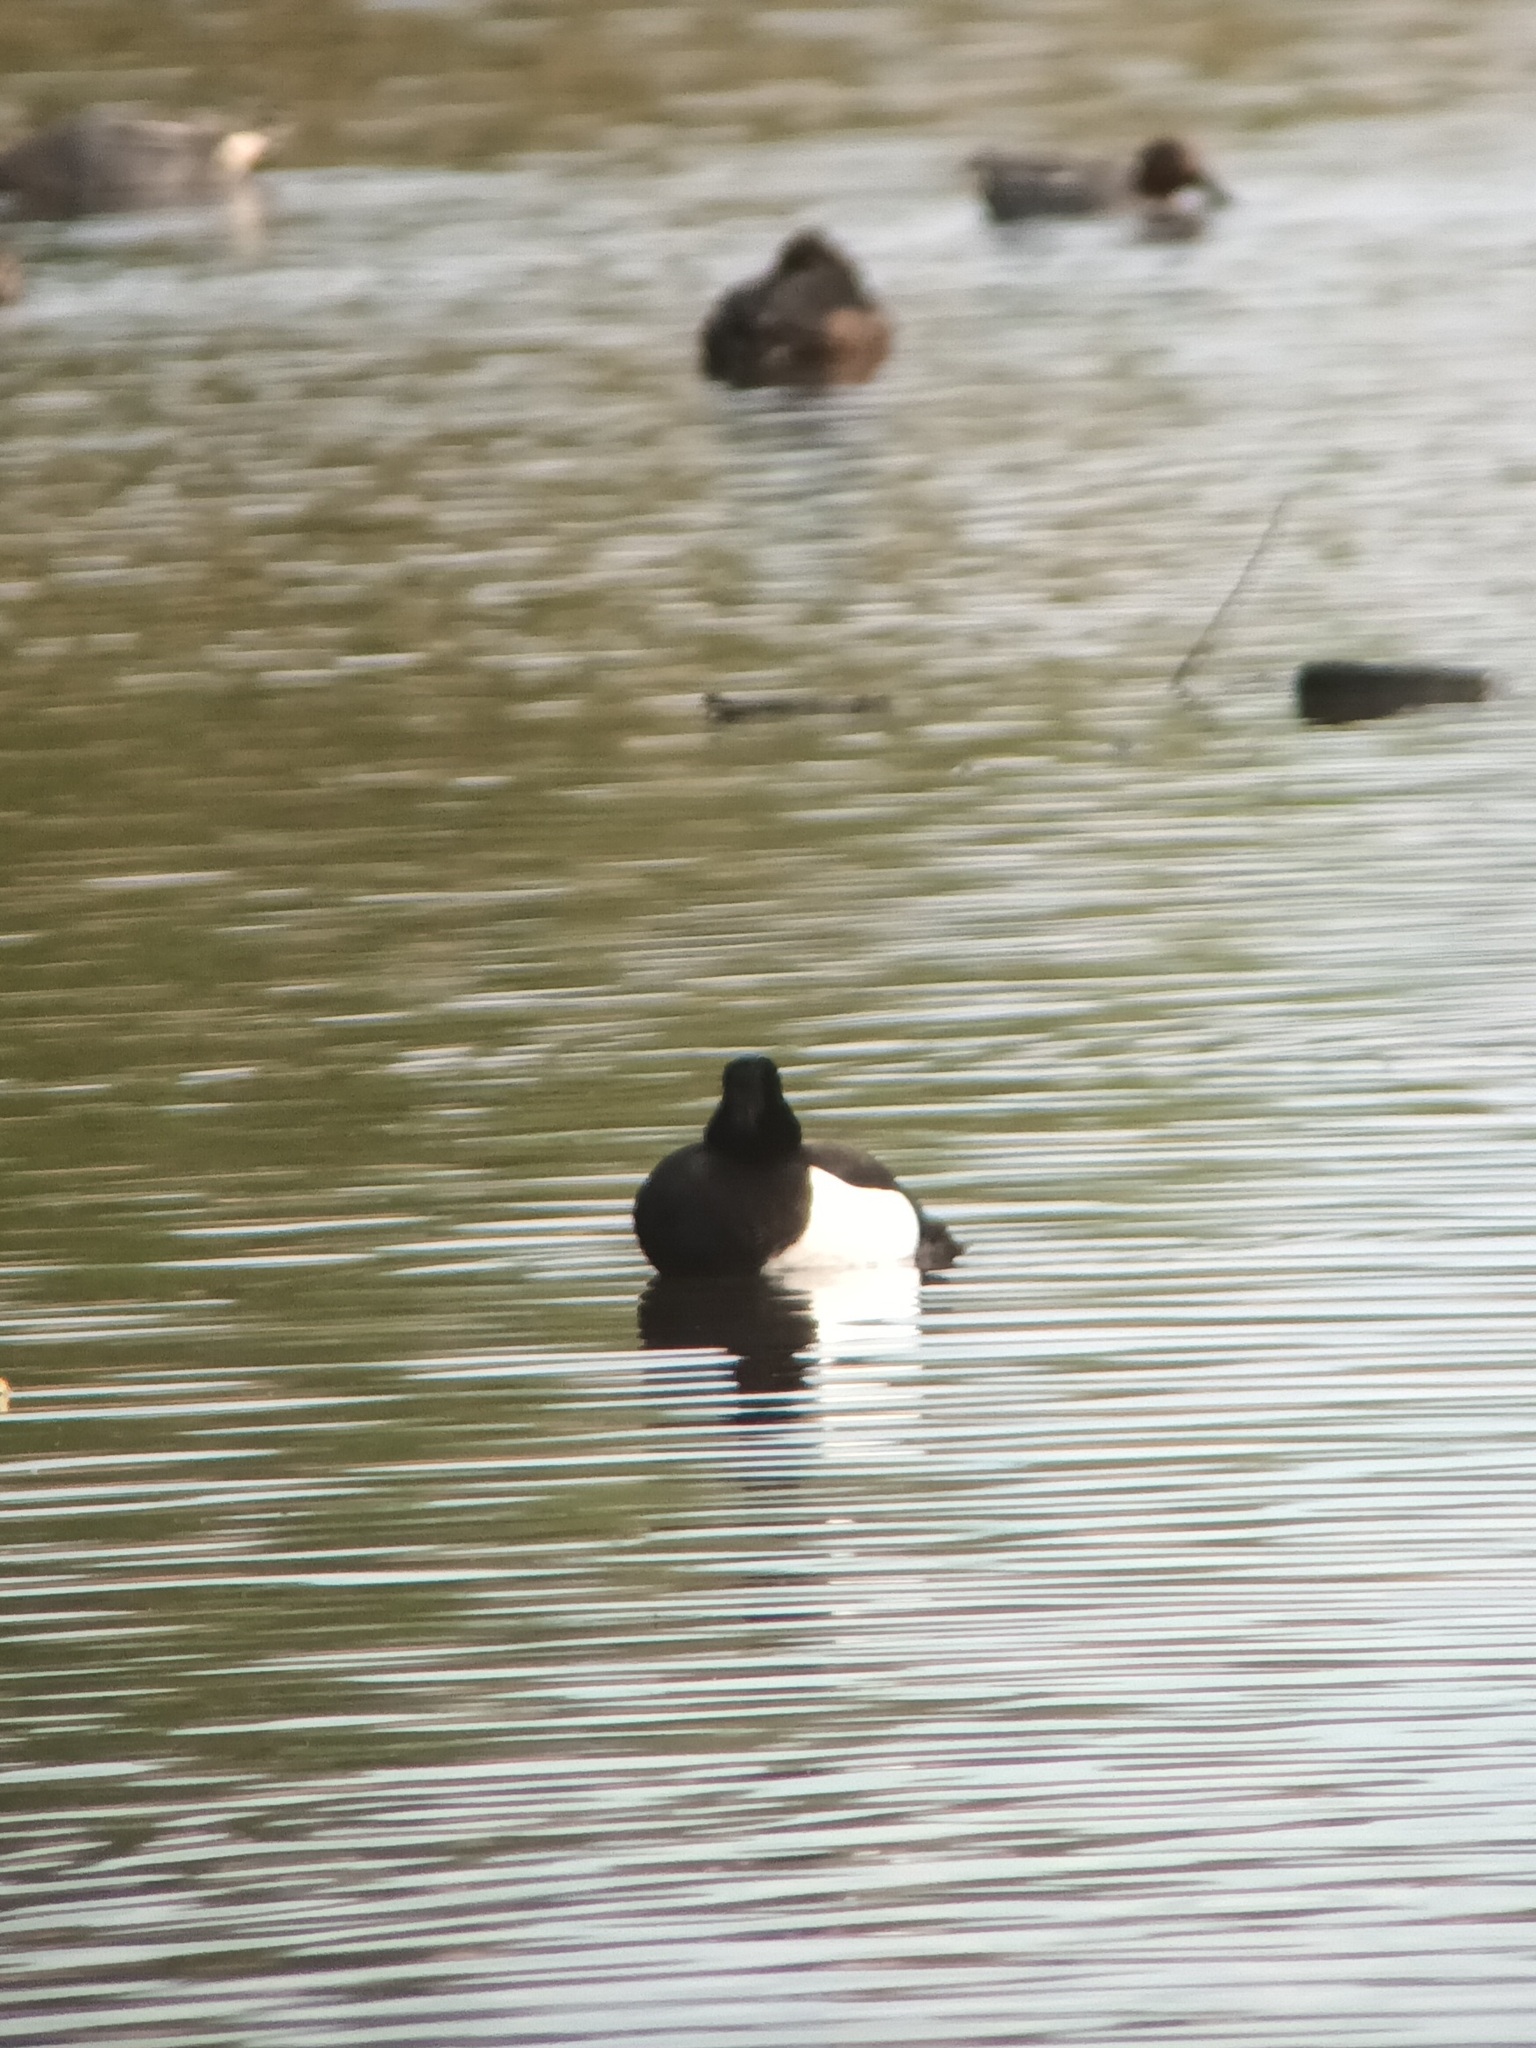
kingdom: Animalia
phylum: Chordata
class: Aves
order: Anseriformes
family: Anatidae
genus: Aythya
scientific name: Aythya fuligula
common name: Tufted duck
